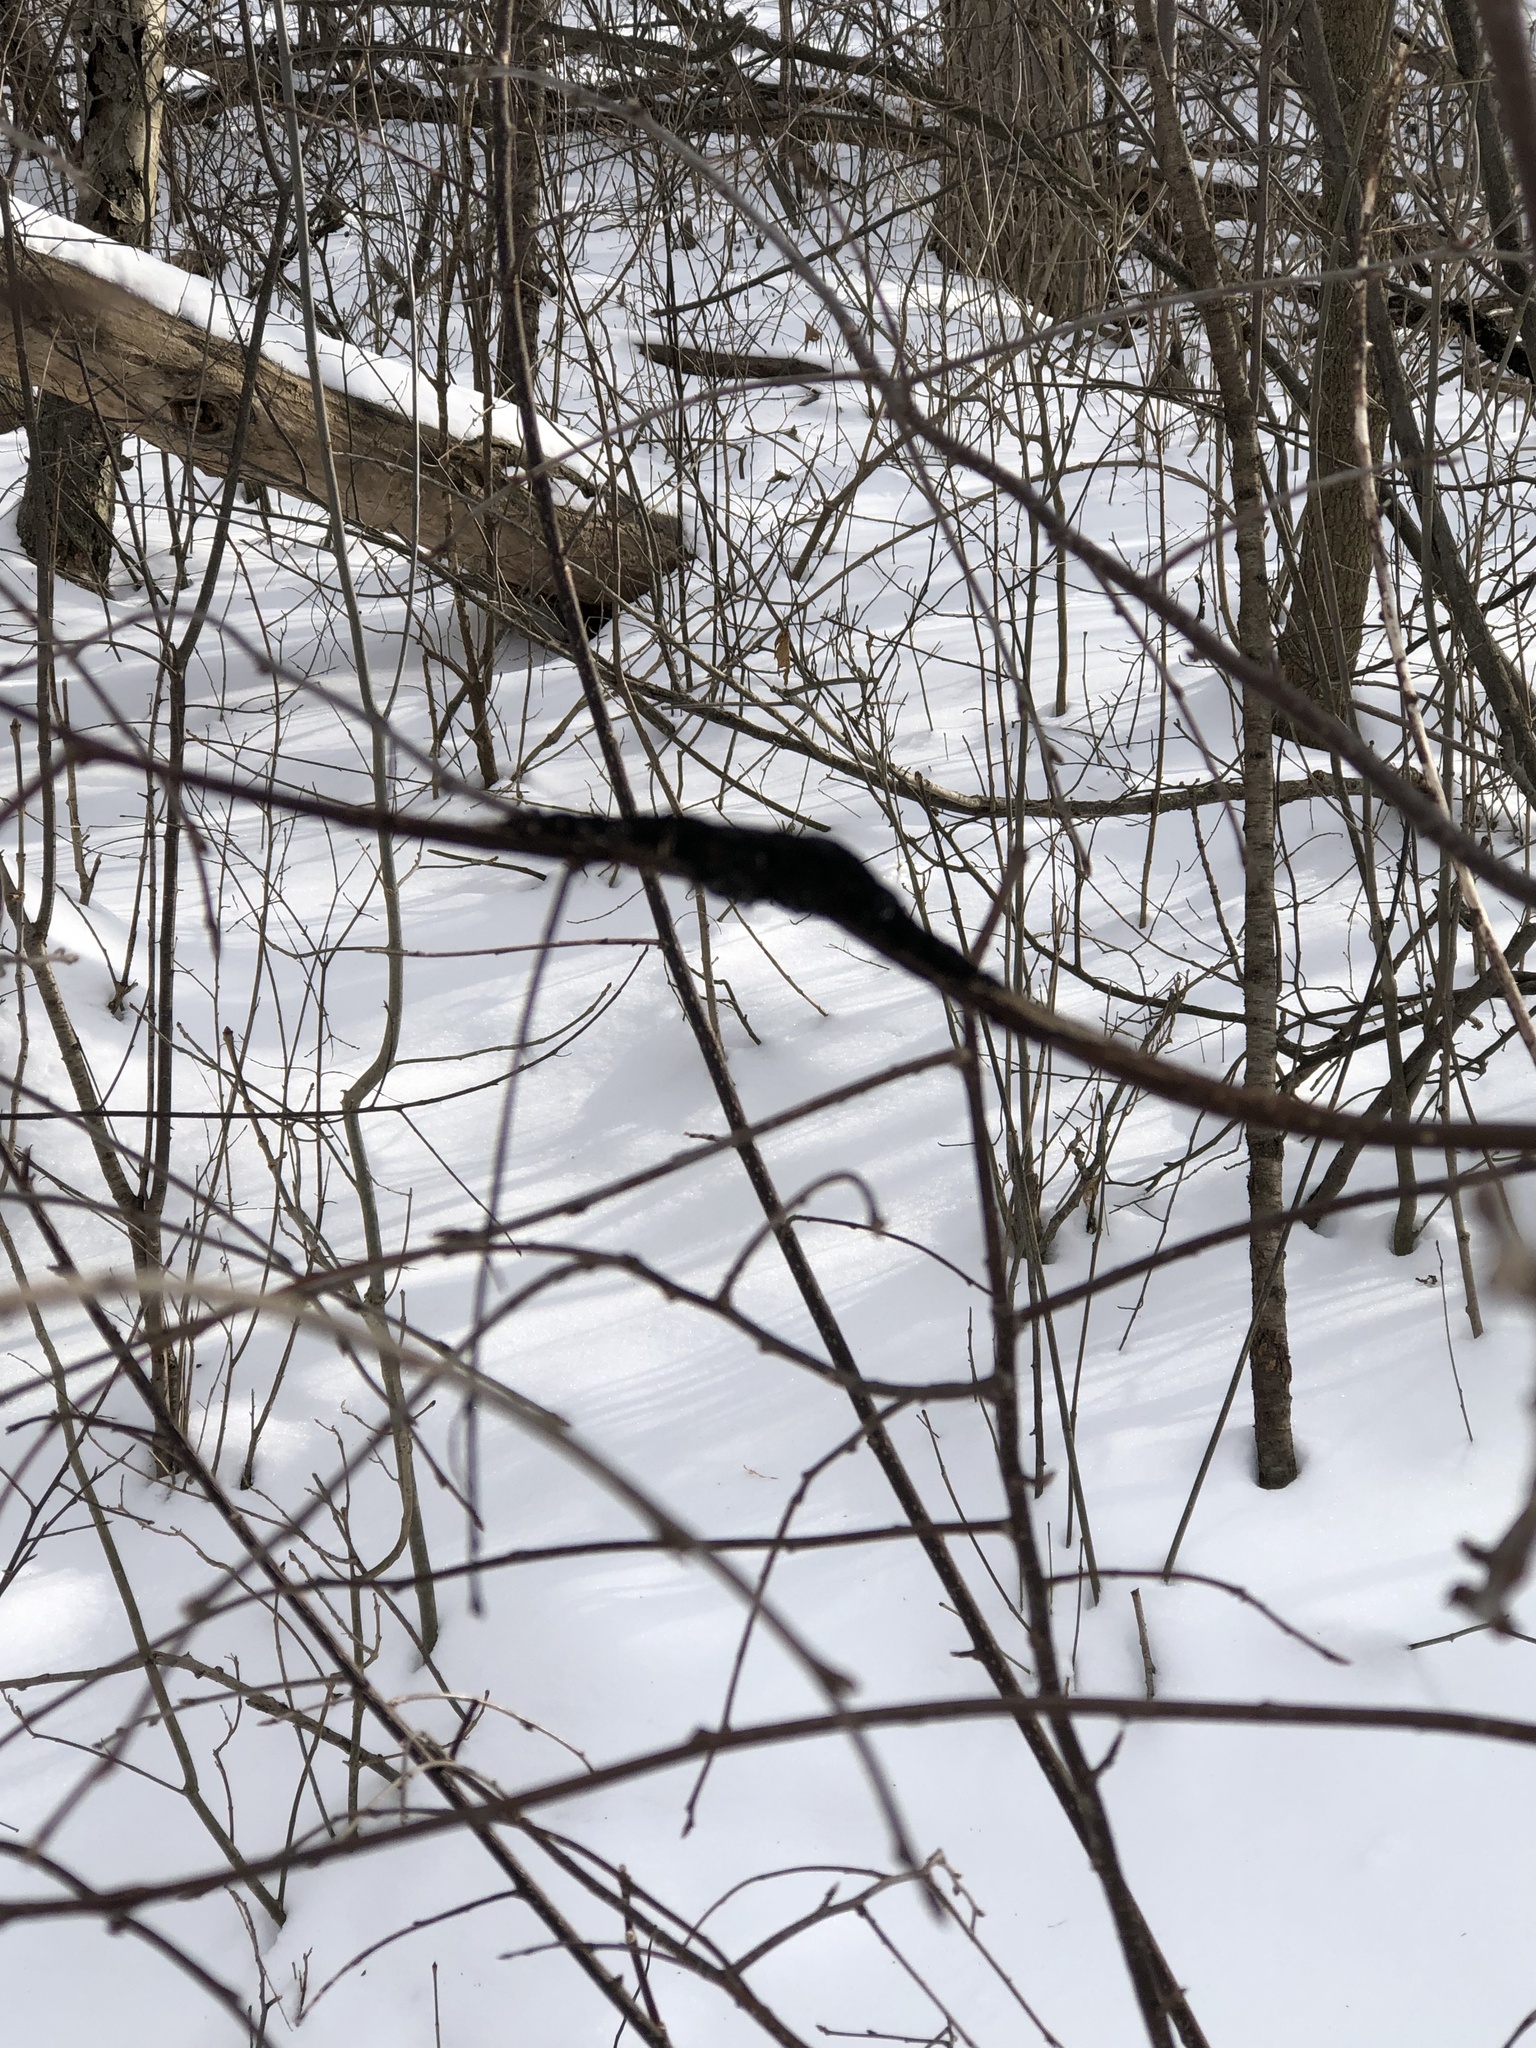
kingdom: Fungi
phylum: Ascomycota
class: Dothideomycetes
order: Venturiales
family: Venturiaceae
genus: Apiosporina
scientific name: Apiosporina morbosa
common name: Black knot
